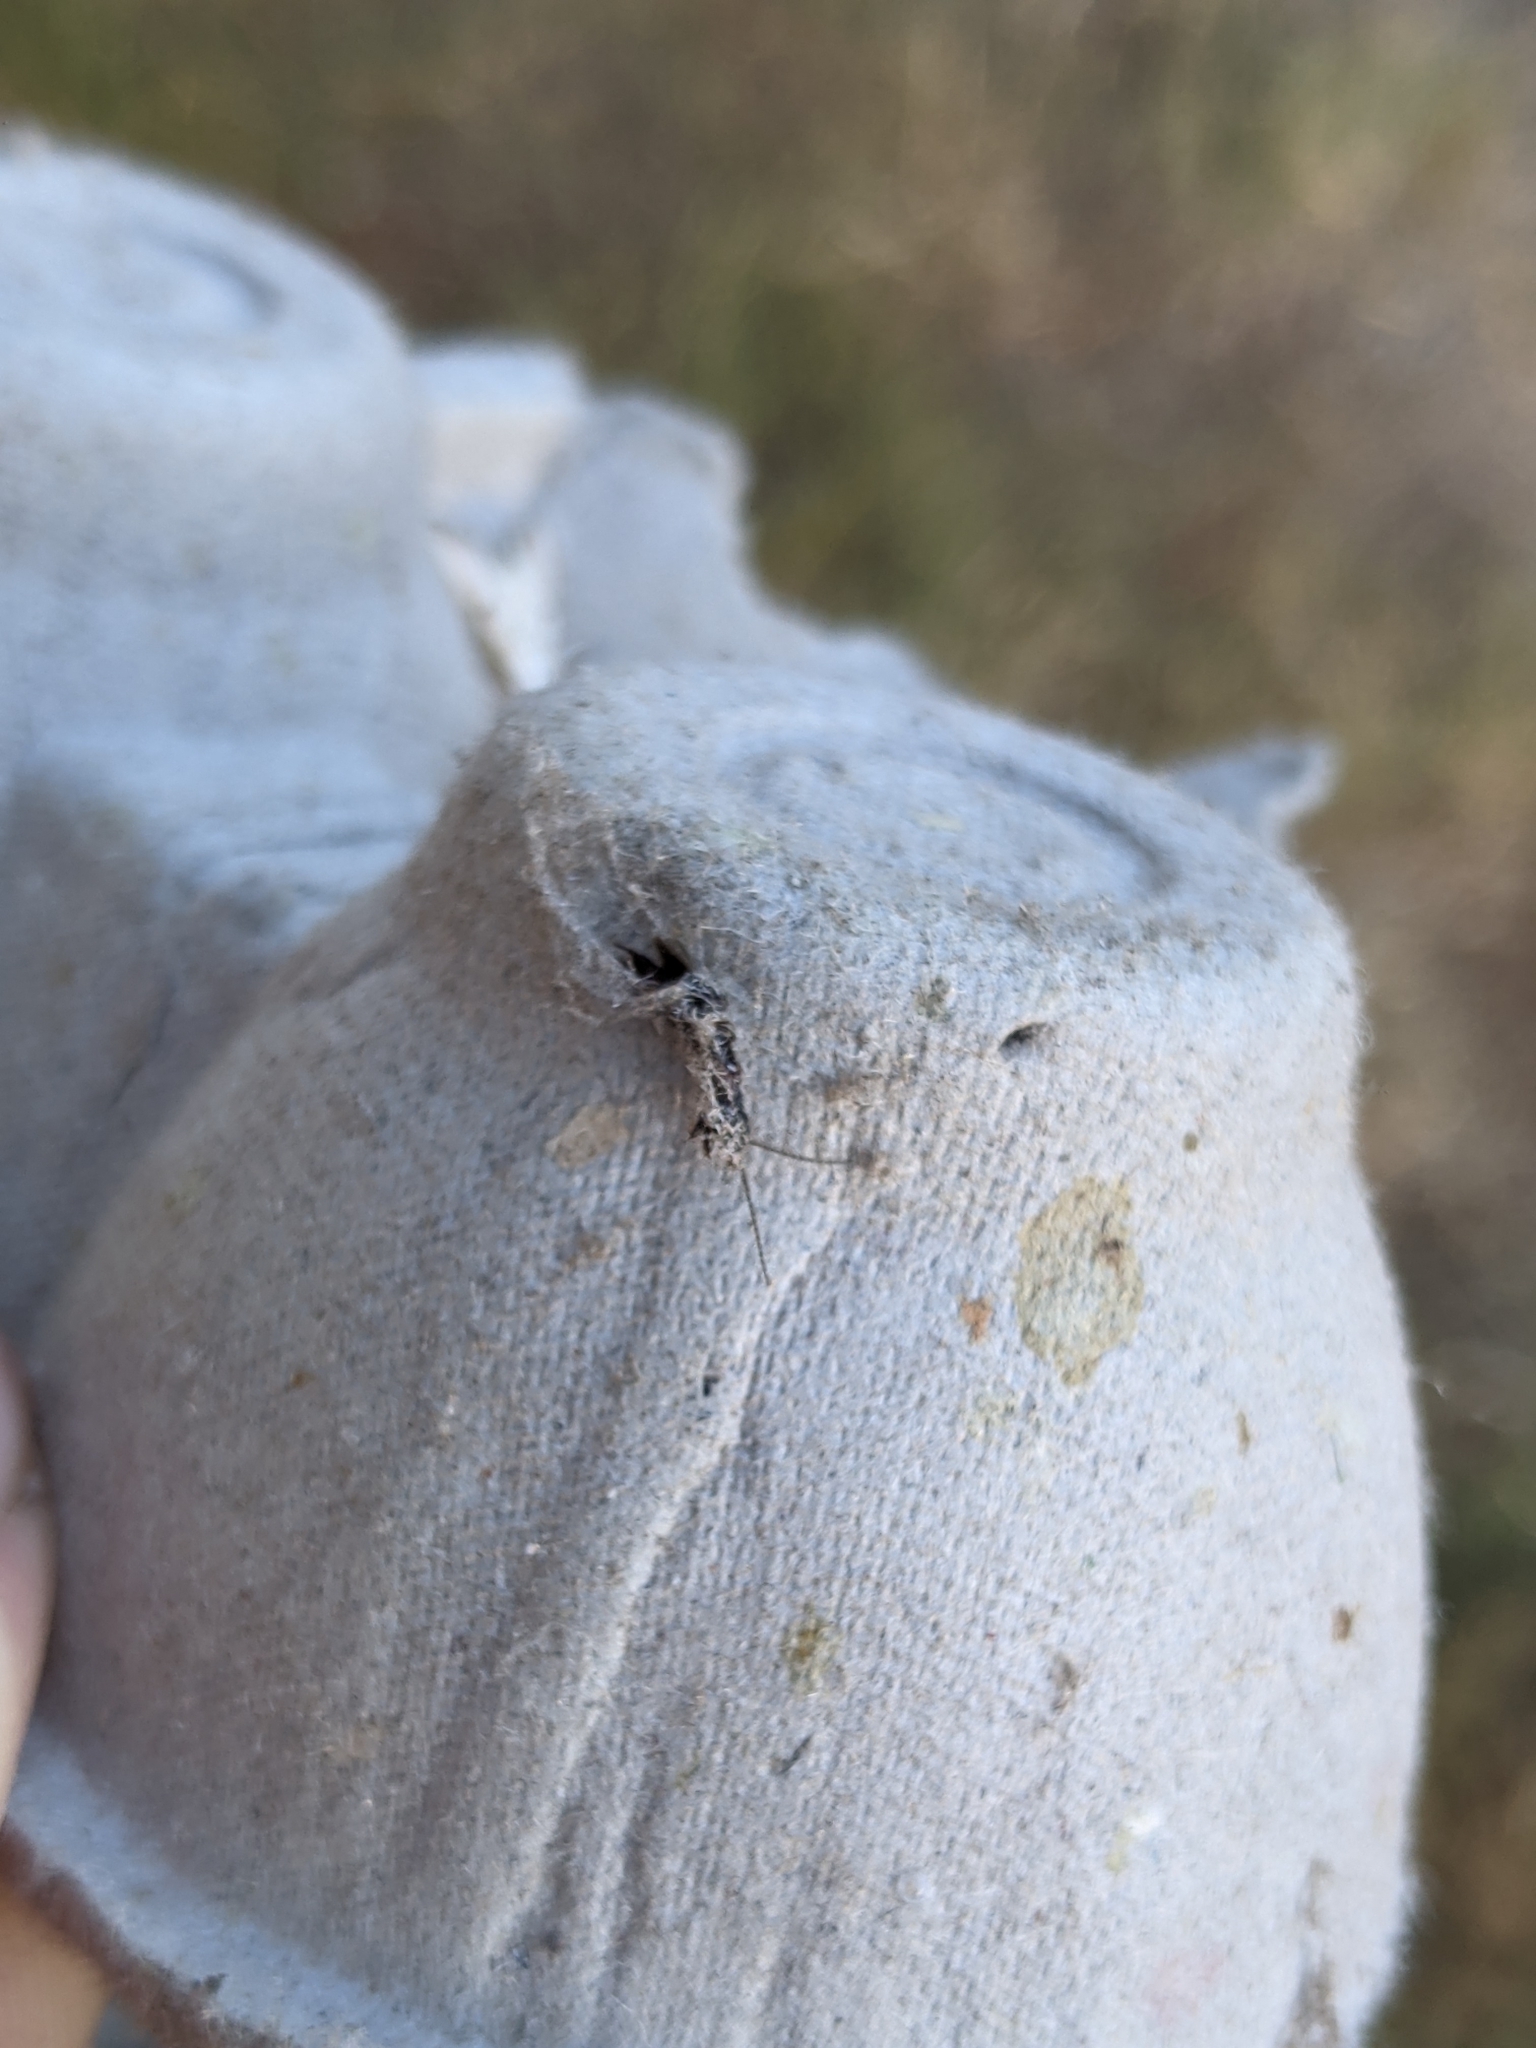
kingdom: Animalia
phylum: Arthropoda
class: Insecta
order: Embioptera
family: Oligotomidae
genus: Oligotoma
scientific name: Oligotoma nigra
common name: Black webspinner
